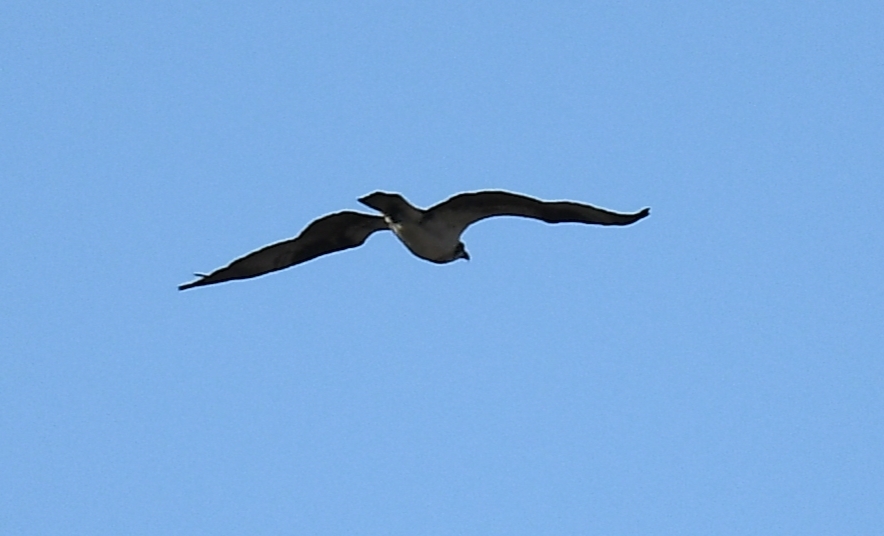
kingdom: Animalia
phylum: Chordata
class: Aves
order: Accipitriformes
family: Pandionidae
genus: Pandion
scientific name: Pandion haliaetus
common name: Osprey
